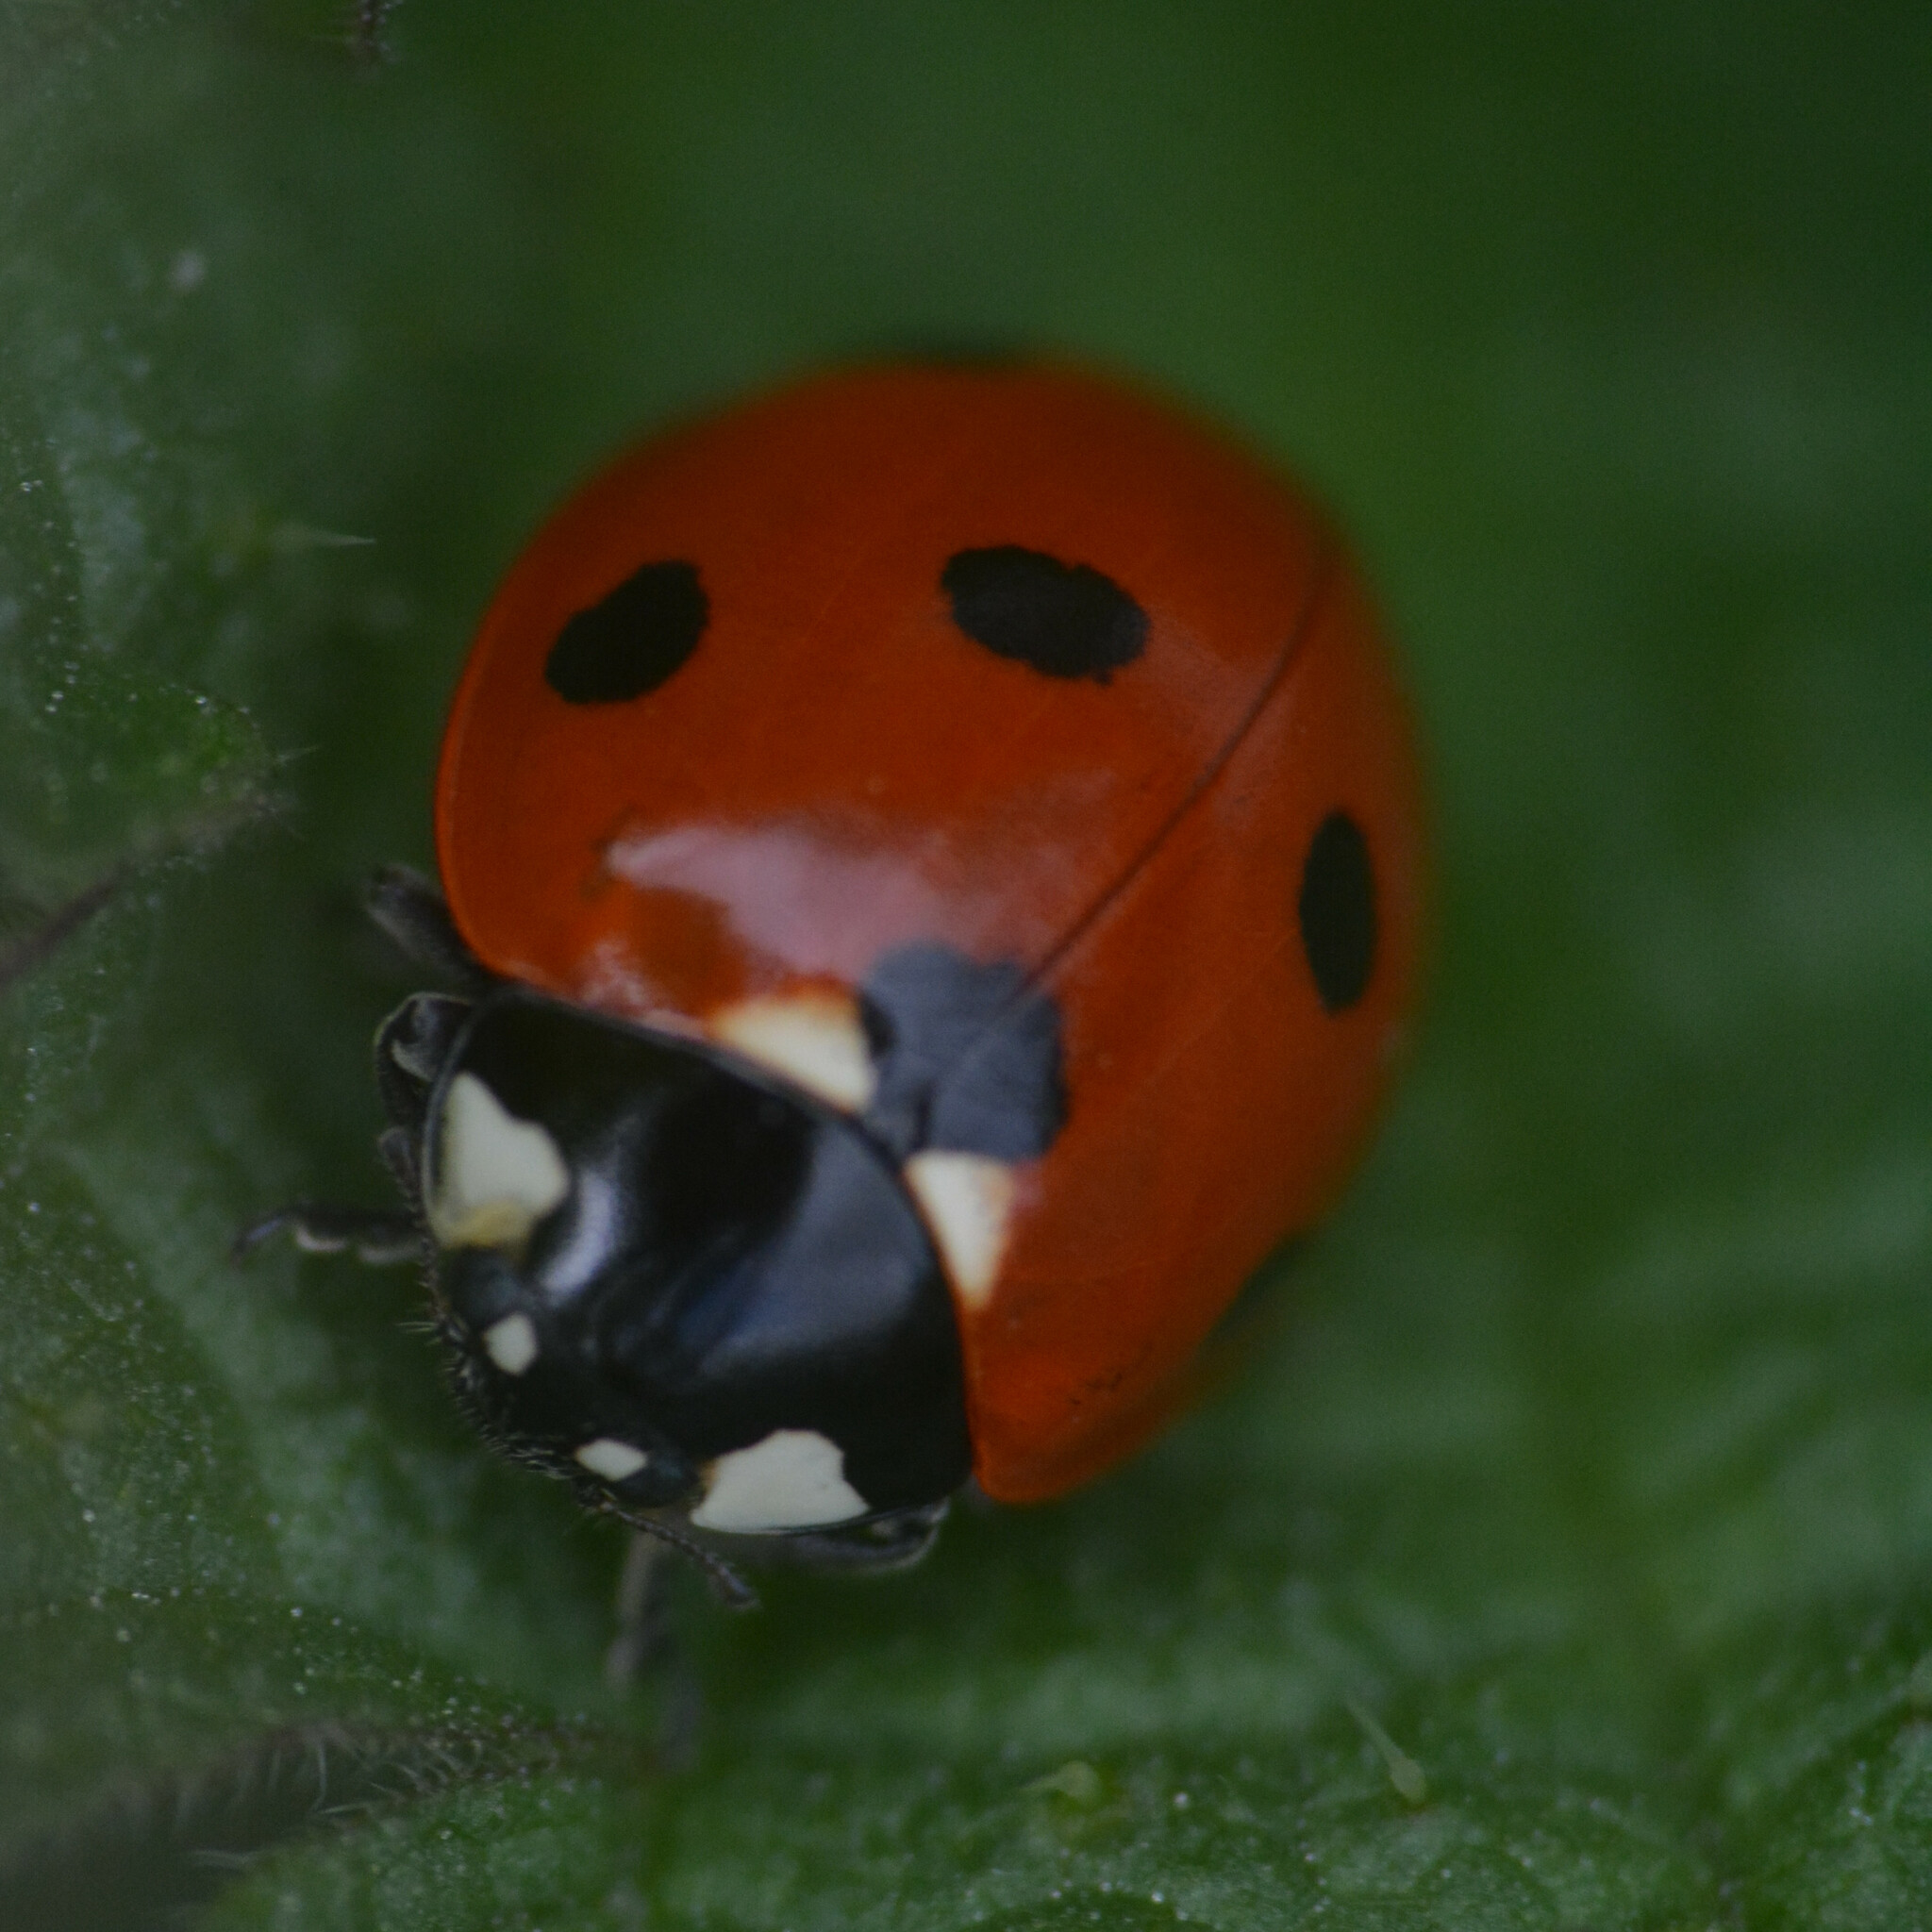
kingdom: Animalia
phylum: Arthropoda
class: Insecta
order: Coleoptera
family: Coccinellidae
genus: Coccinella
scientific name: Coccinella septempunctata
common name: Sevenspotted lady beetle
